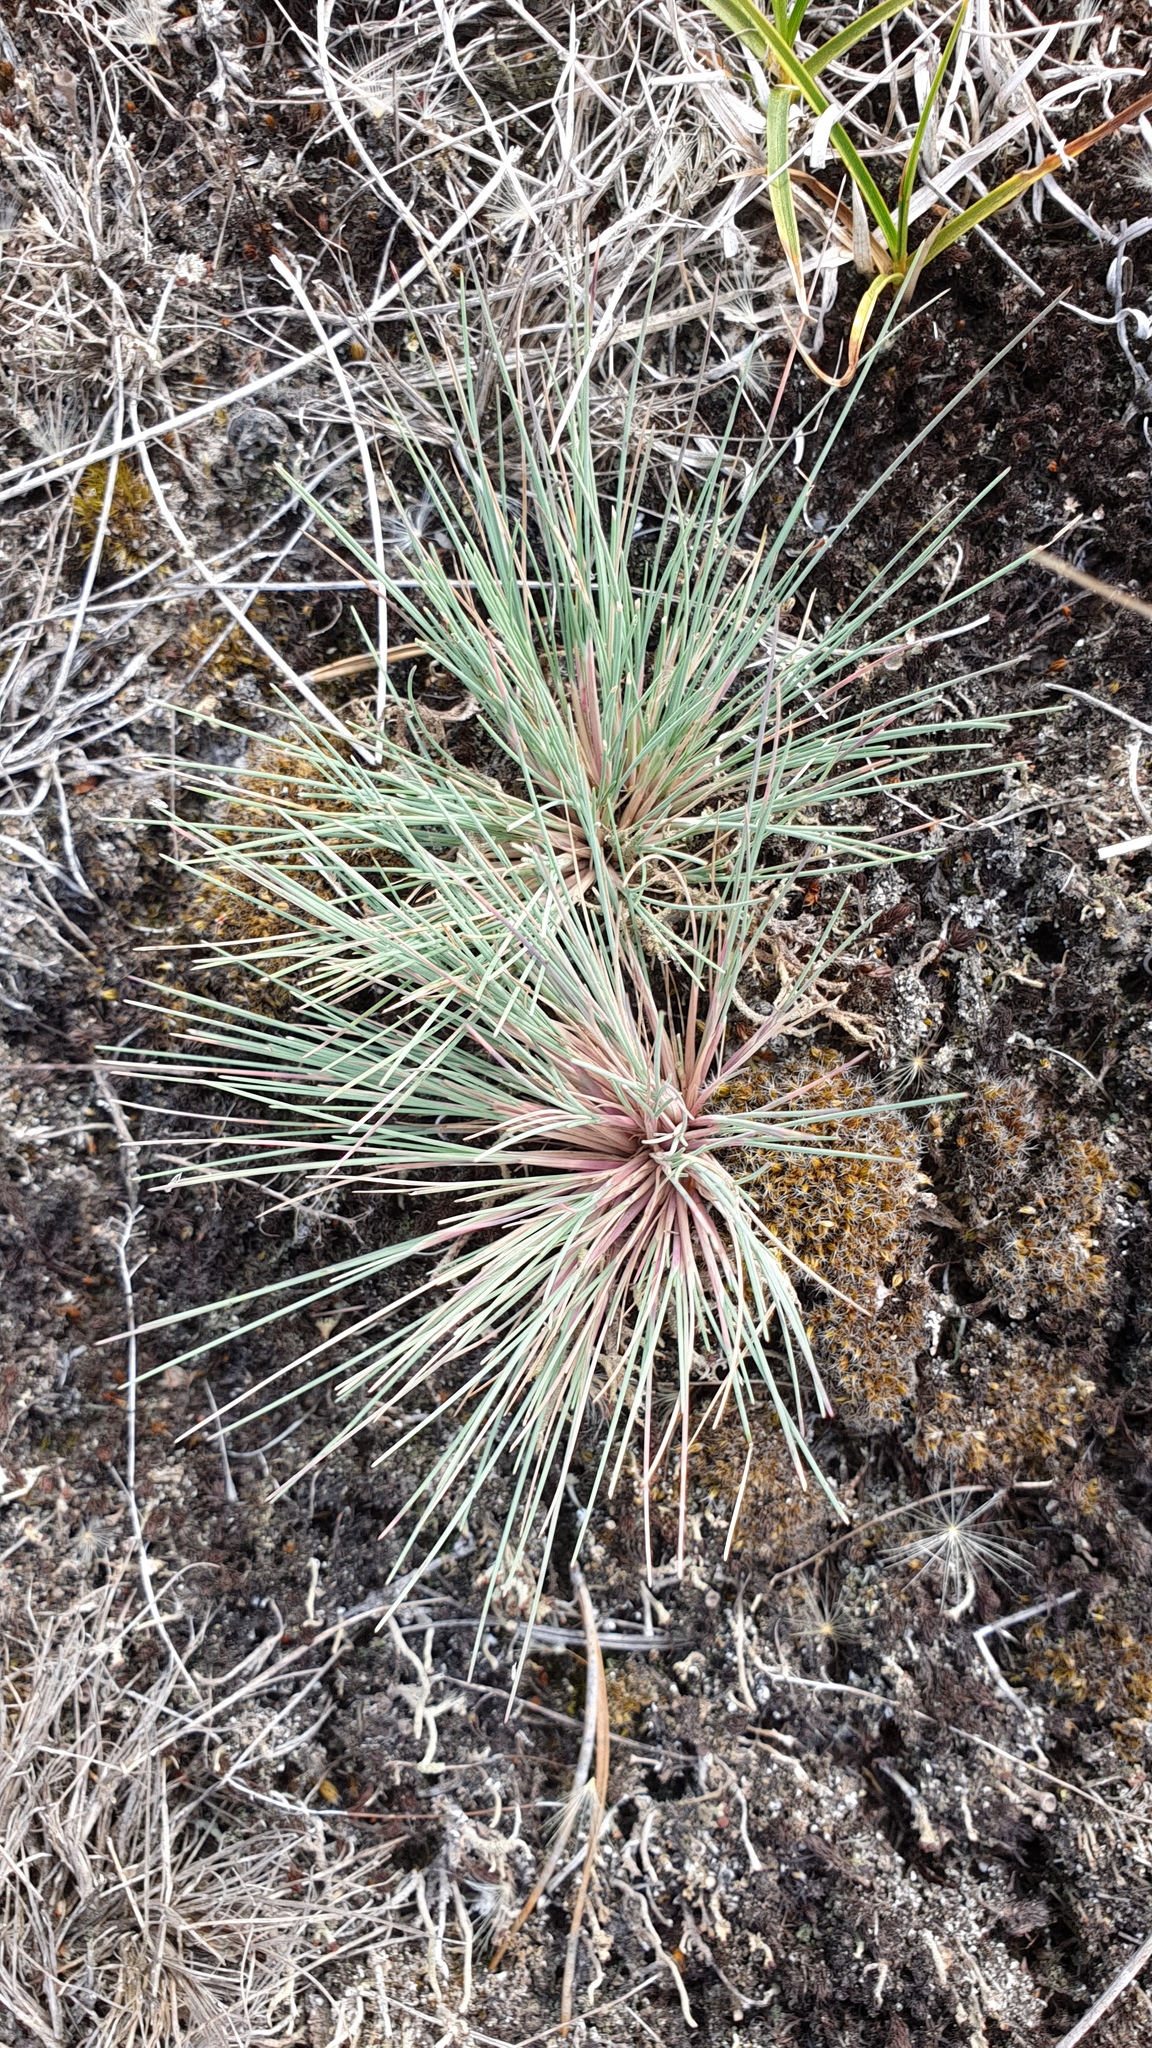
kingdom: Plantae
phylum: Tracheophyta
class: Liliopsida
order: Poales
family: Poaceae
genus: Corynephorus
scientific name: Corynephorus canescens
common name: Grey hair-grass
